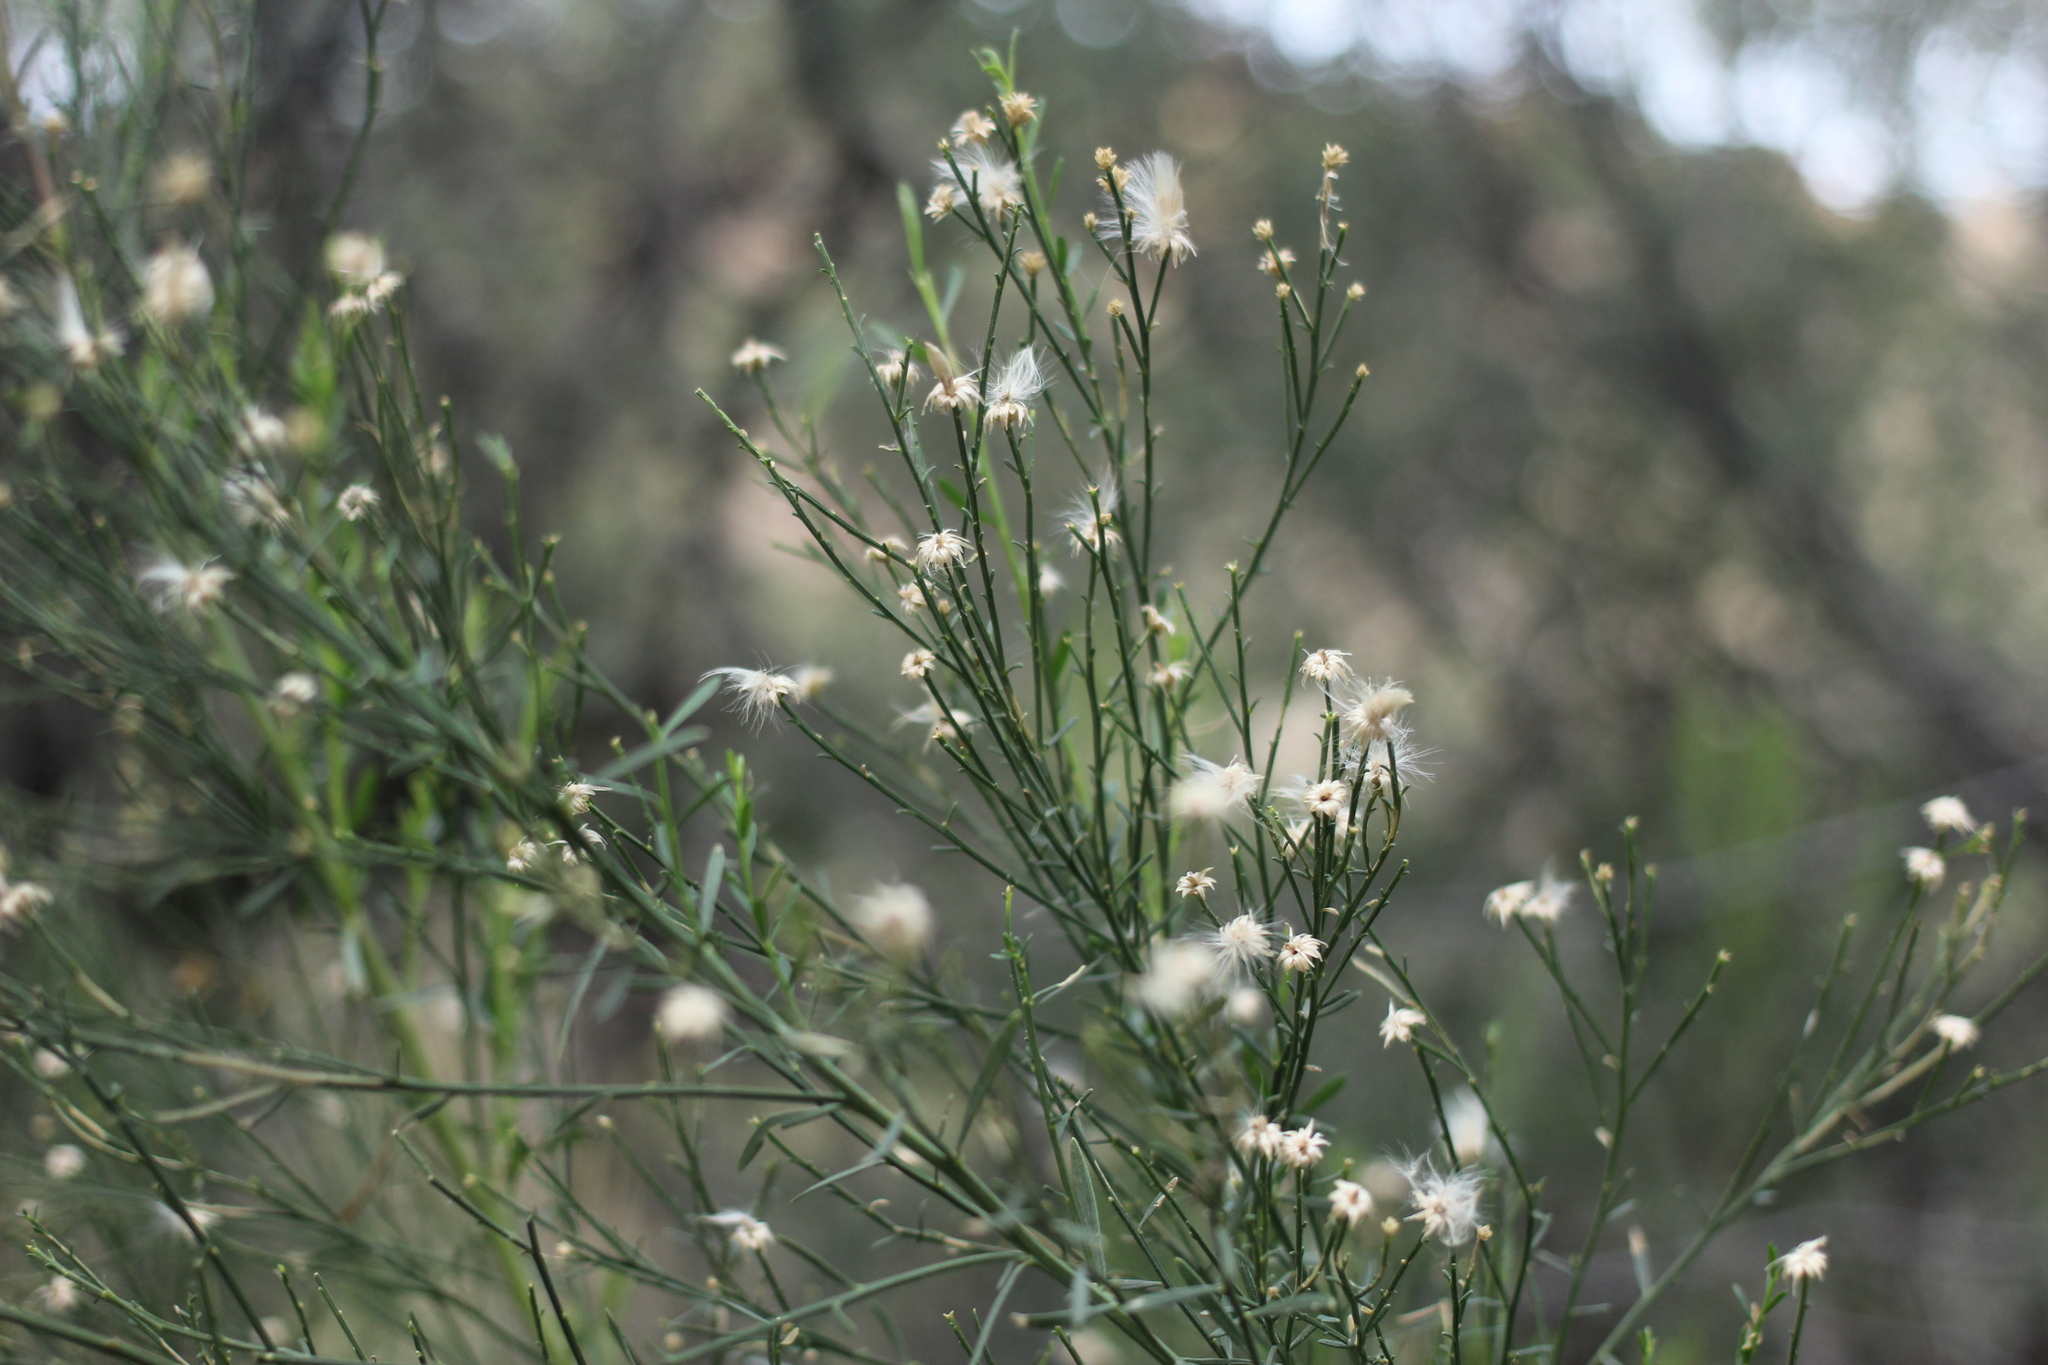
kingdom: Plantae
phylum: Tracheophyta
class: Magnoliopsida
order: Asterales
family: Asteraceae
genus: Baccharis
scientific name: Baccharis sarothroides
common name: Desert-broom
